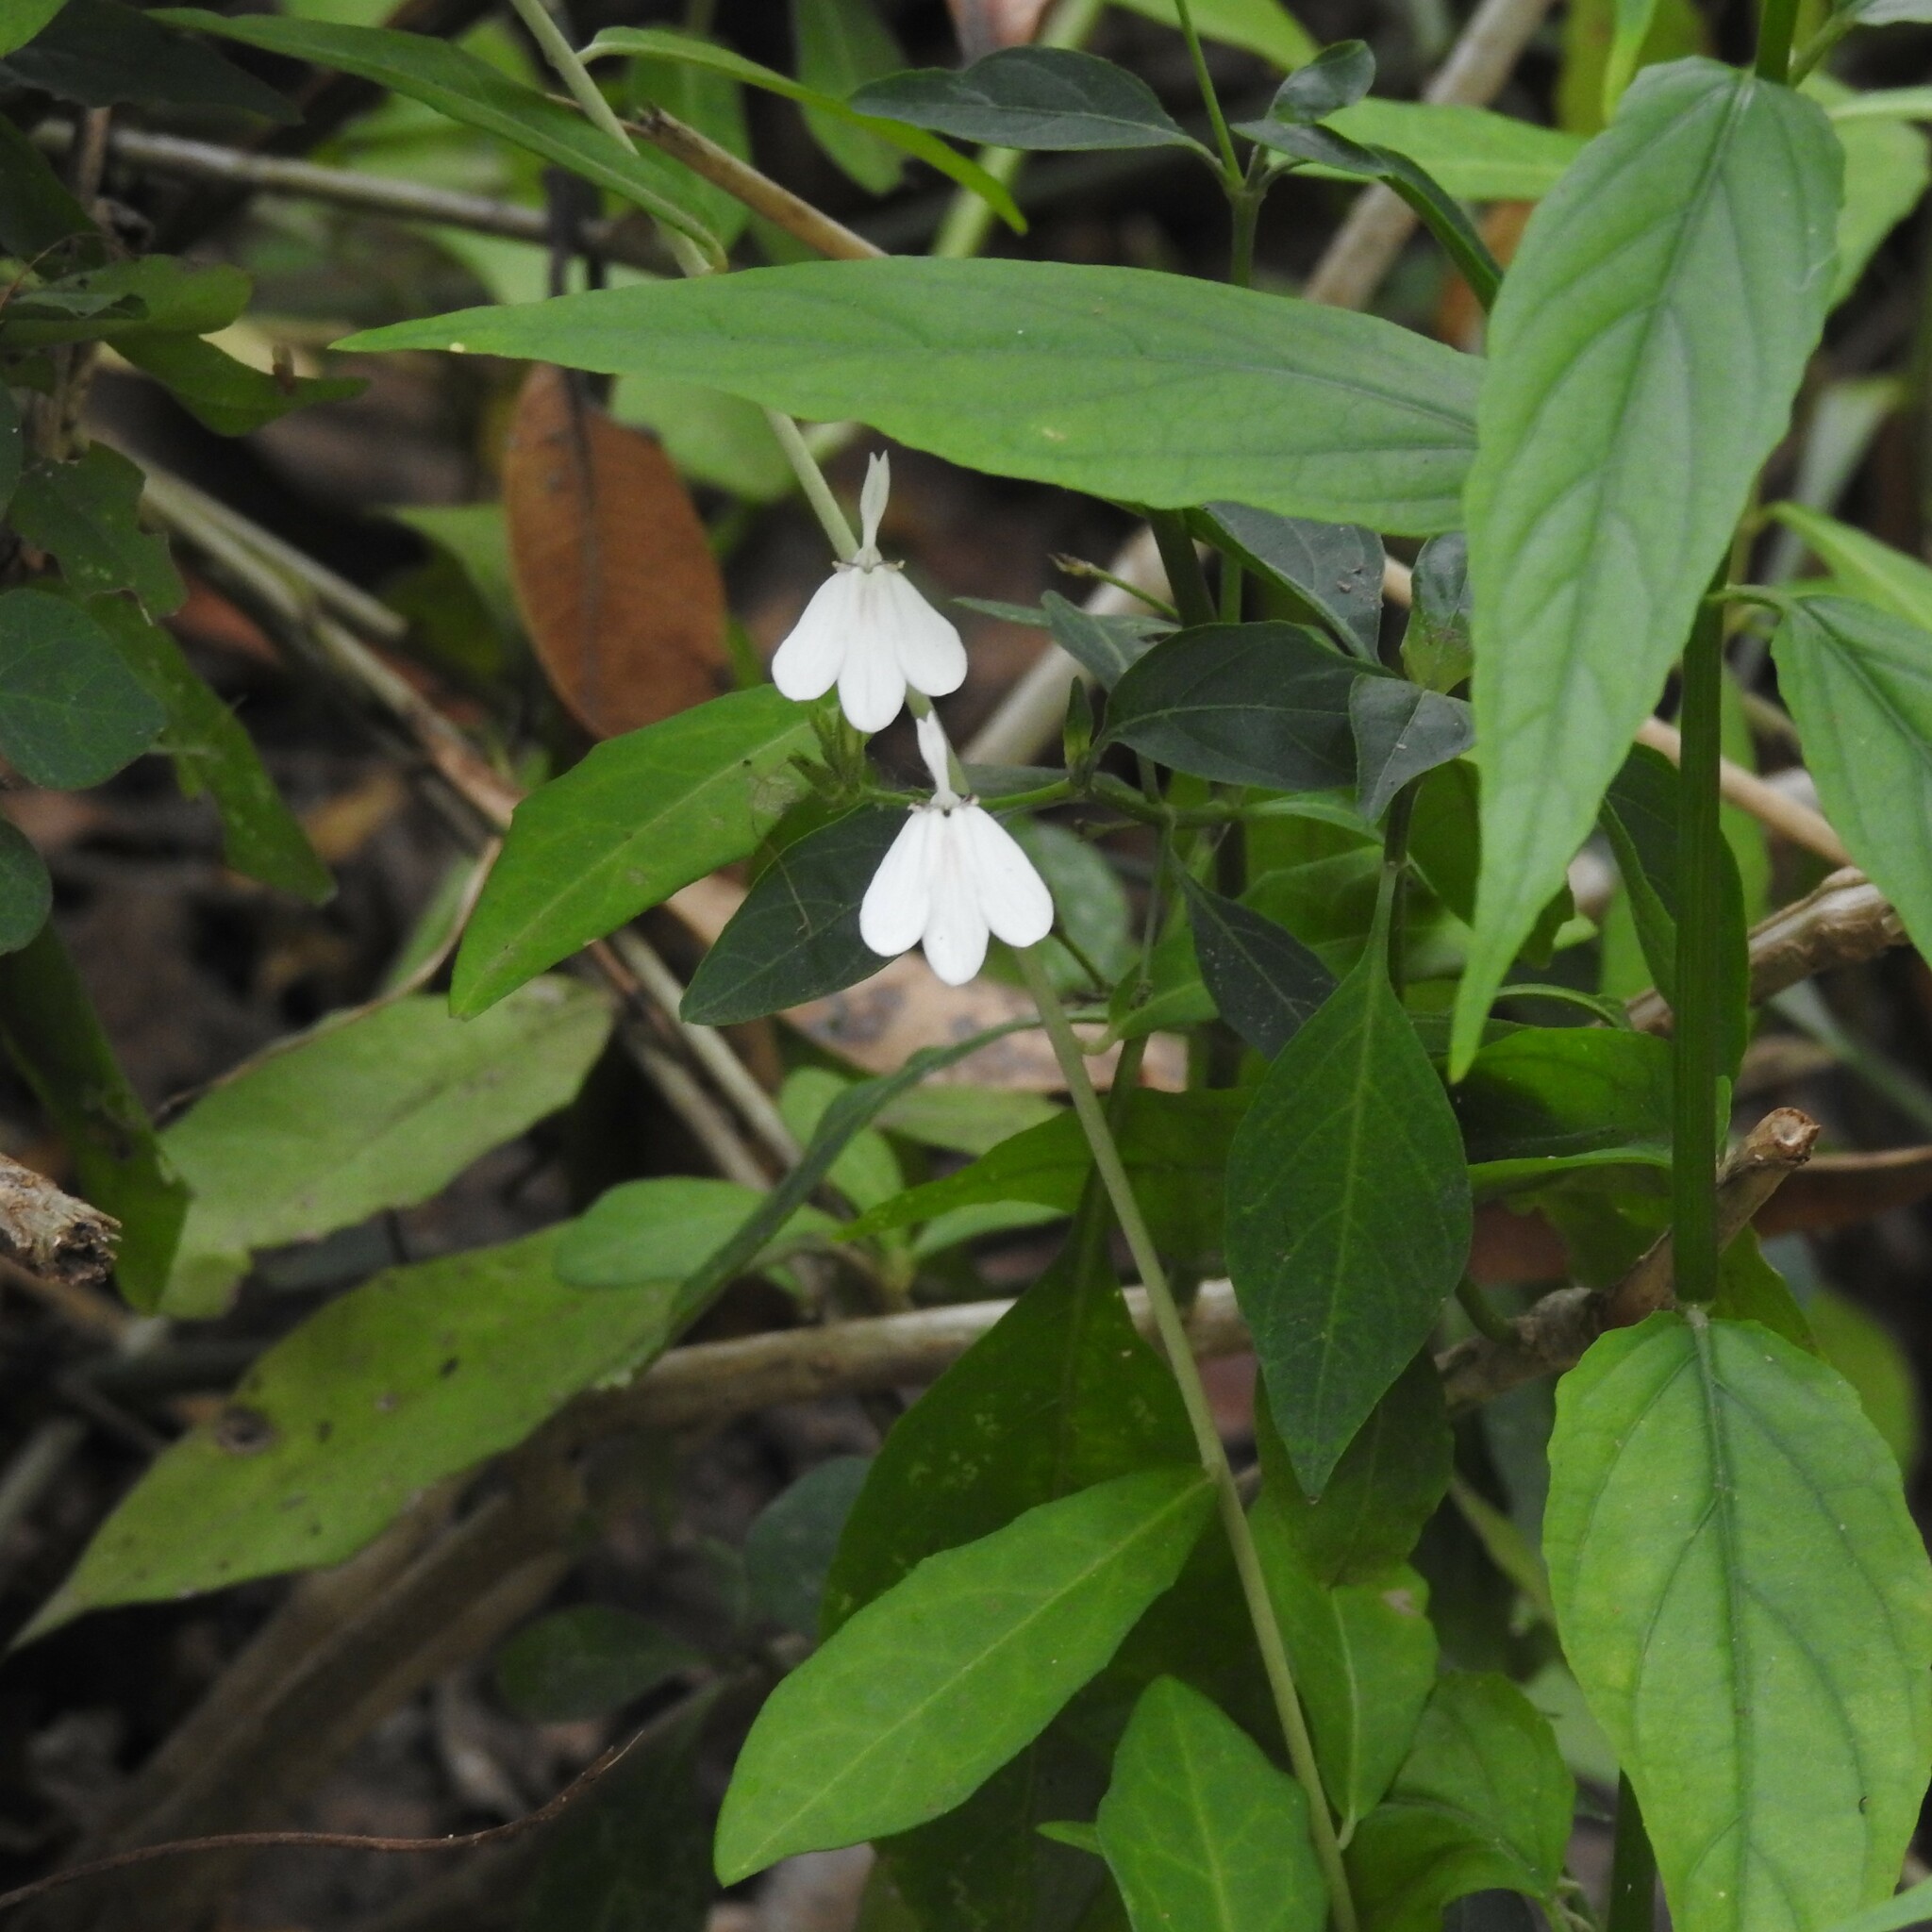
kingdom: Plantae
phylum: Tracheophyta
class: Magnoliopsida
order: Lamiales
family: Acanthaceae
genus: Rhinacanthus
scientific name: Rhinacanthus nasutus
